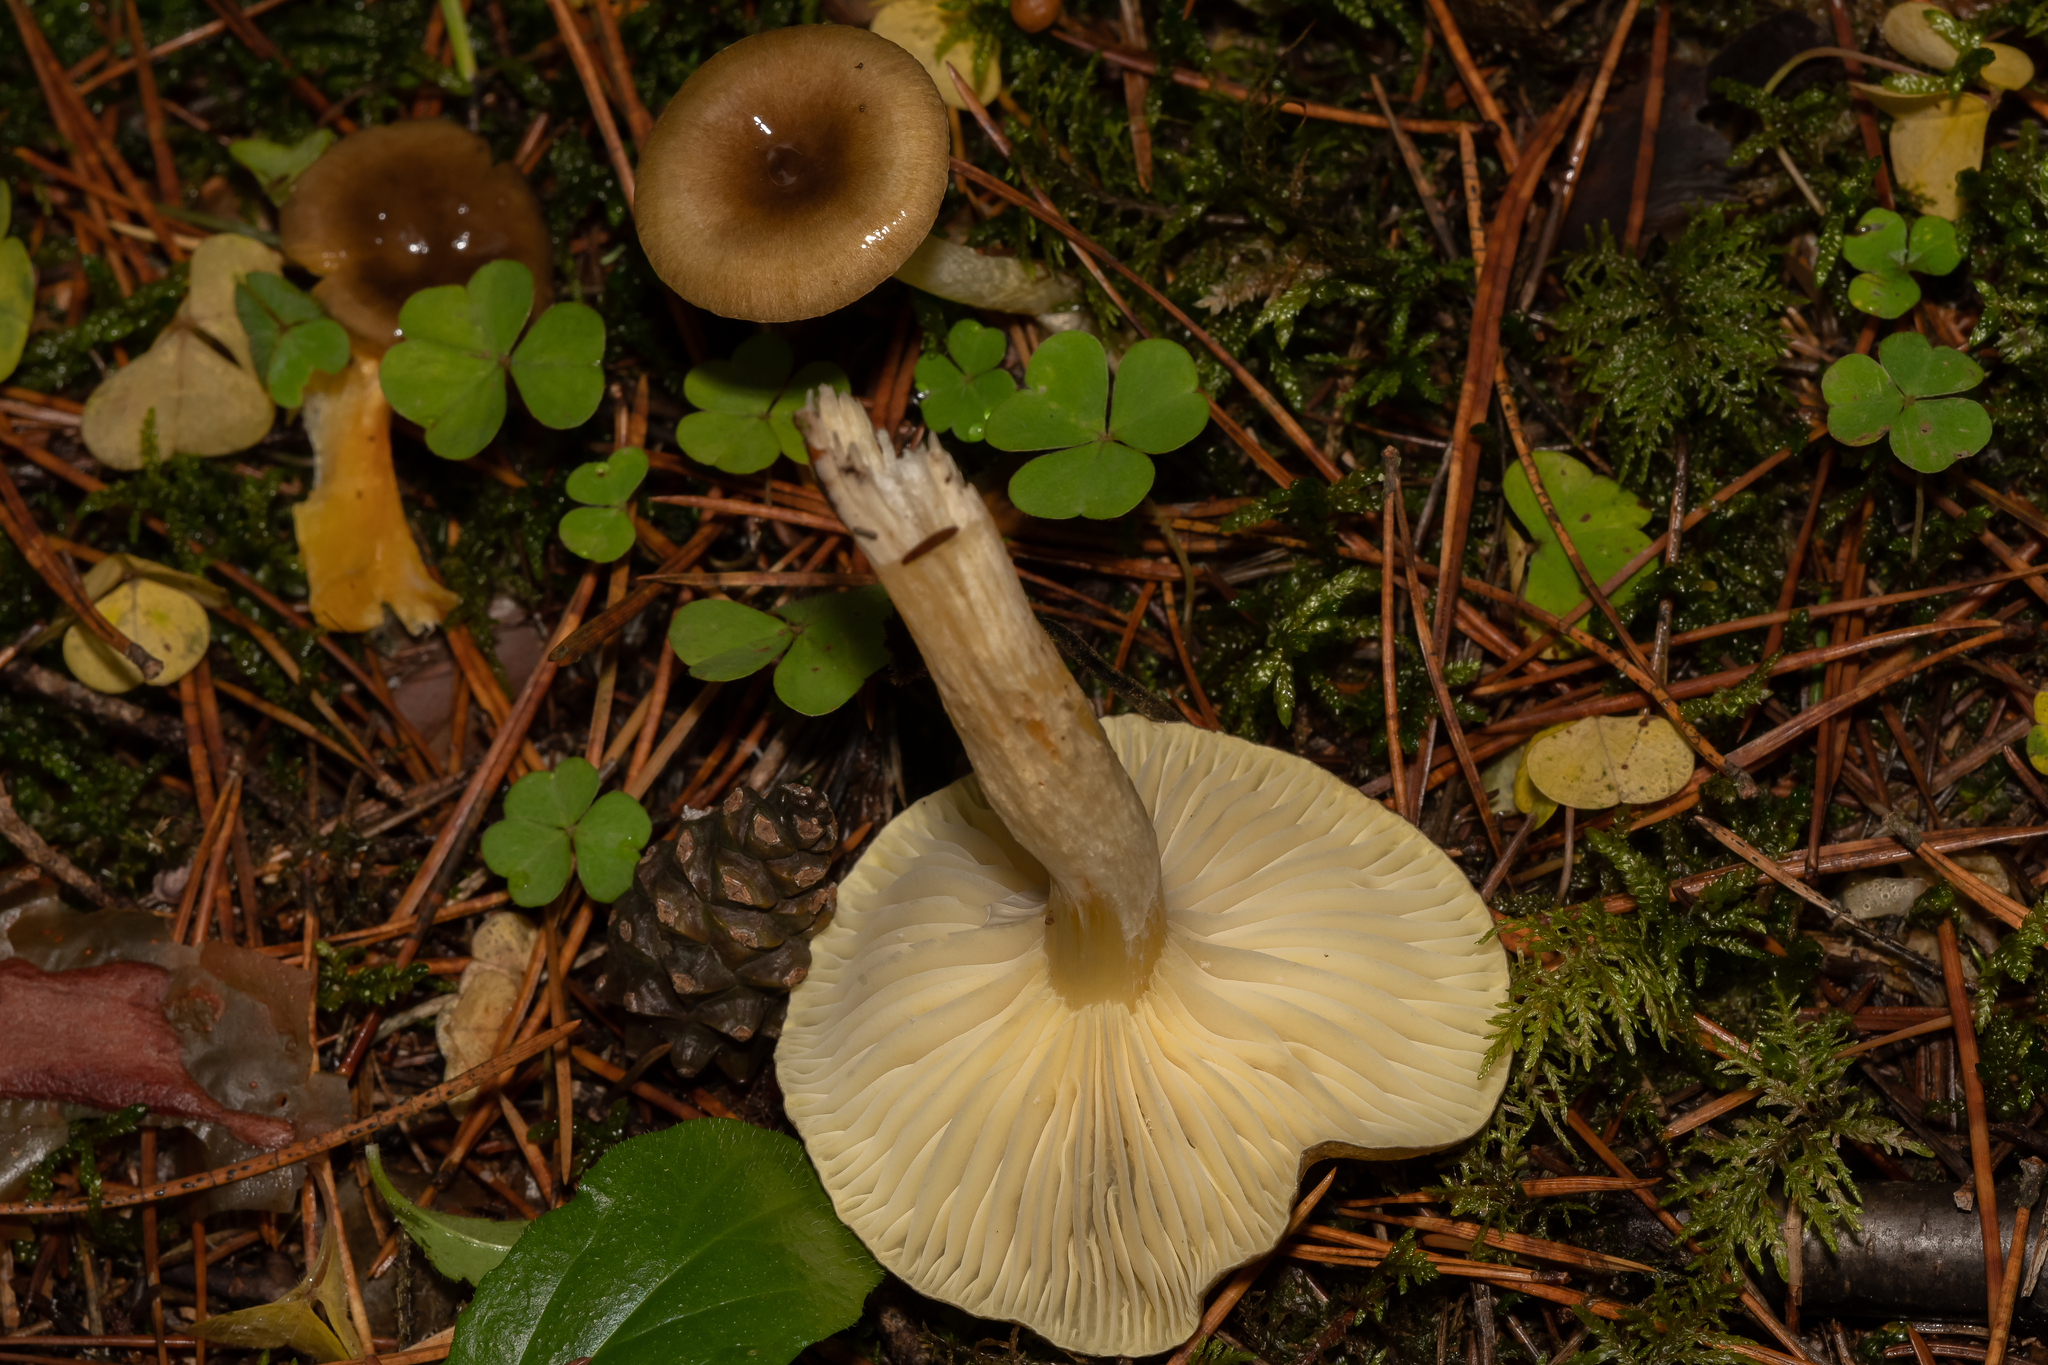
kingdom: Fungi
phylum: Basidiomycota
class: Agaricomycetes
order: Agaricales
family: Hygrophoraceae
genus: Hygrophorus
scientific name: Hygrophorus hypothejus
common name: Herald of winter
